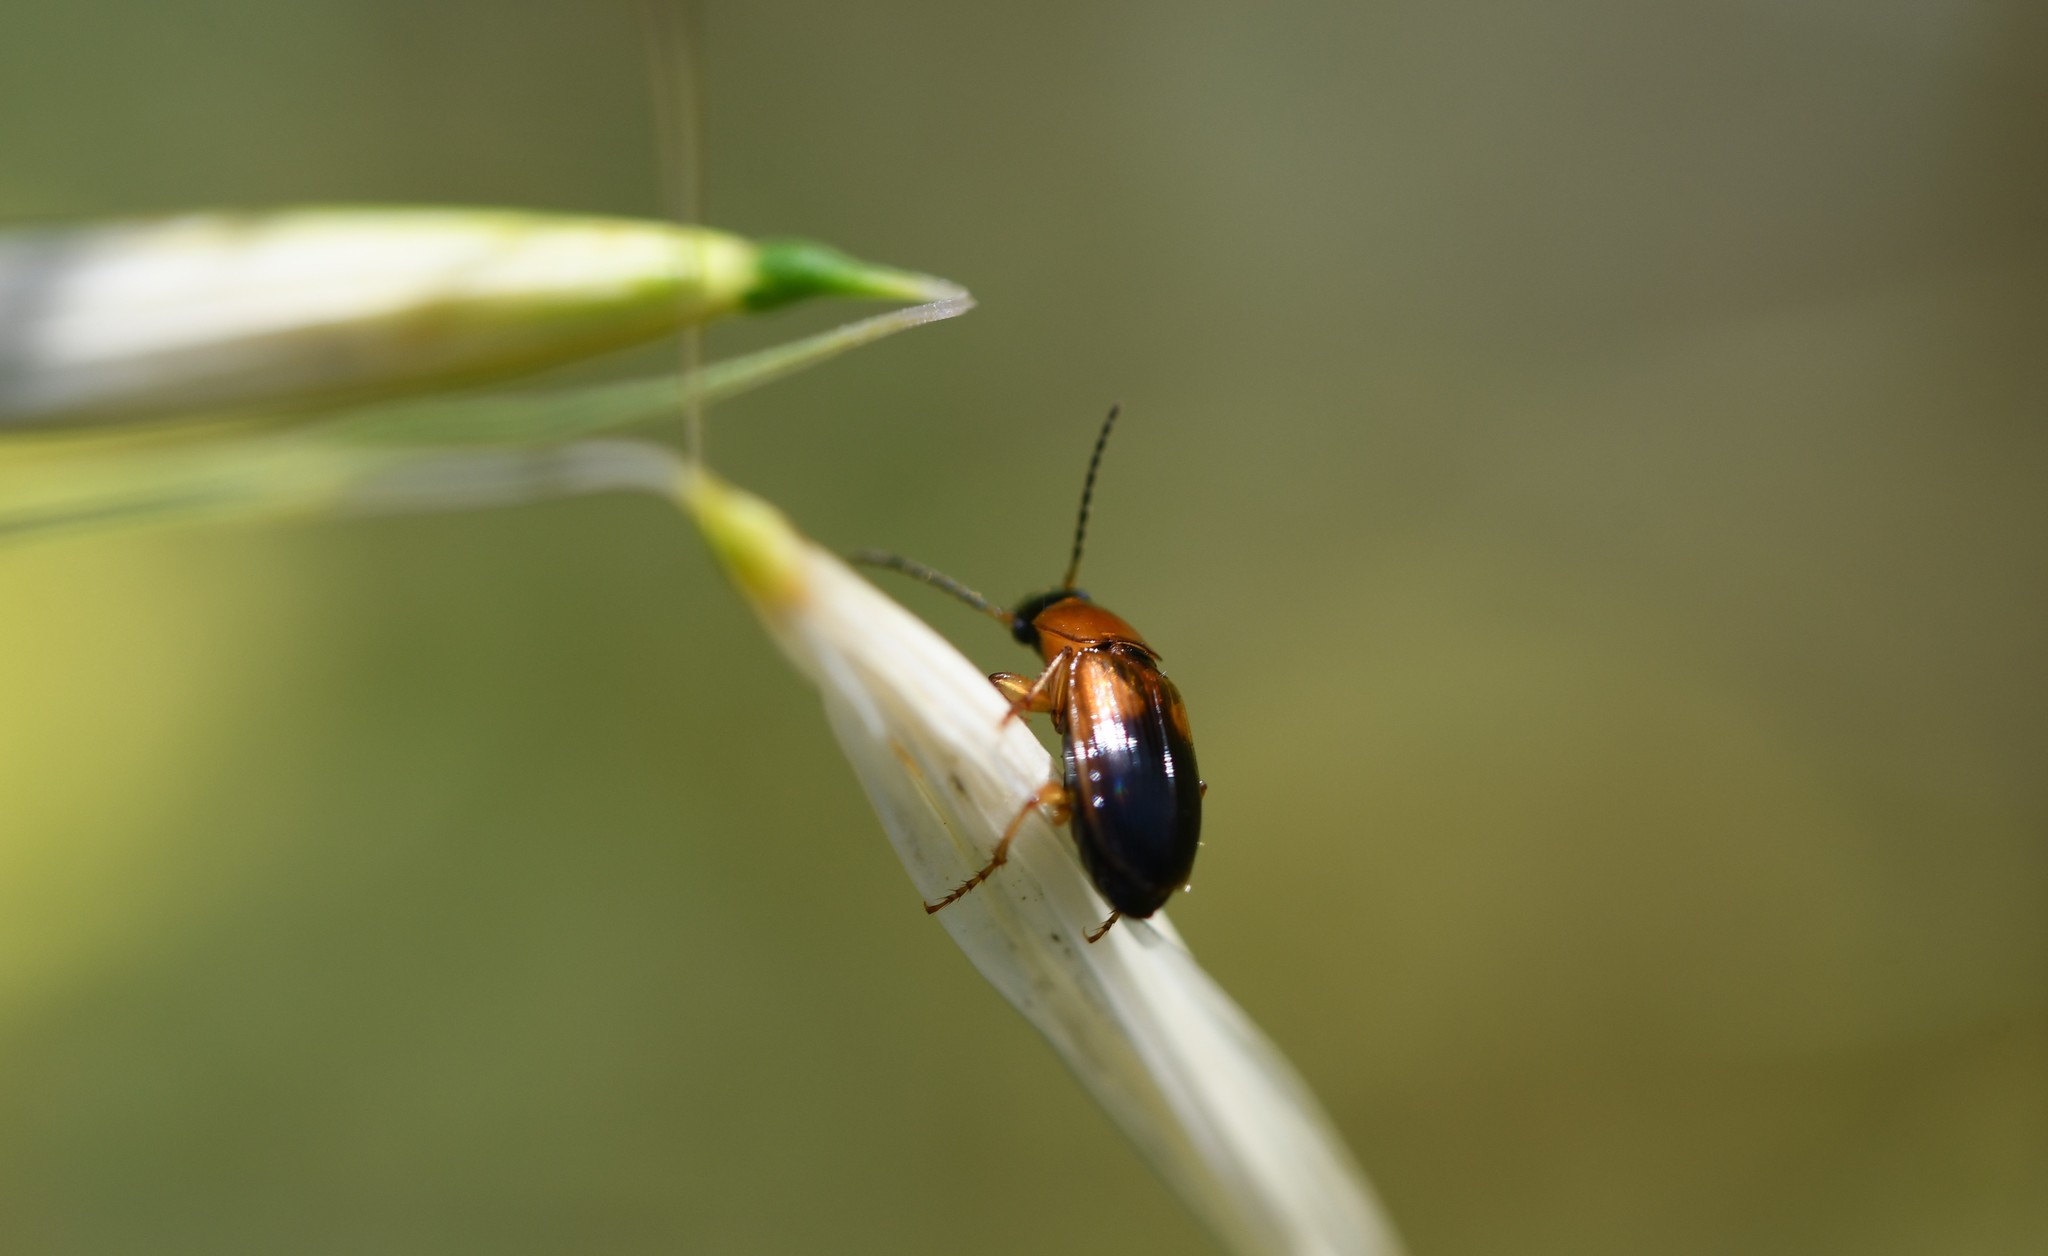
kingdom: Animalia
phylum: Arthropoda
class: Insecta
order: Coleoptera
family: Carabidae
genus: Stenolophus
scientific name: Stenolophus teutonus
